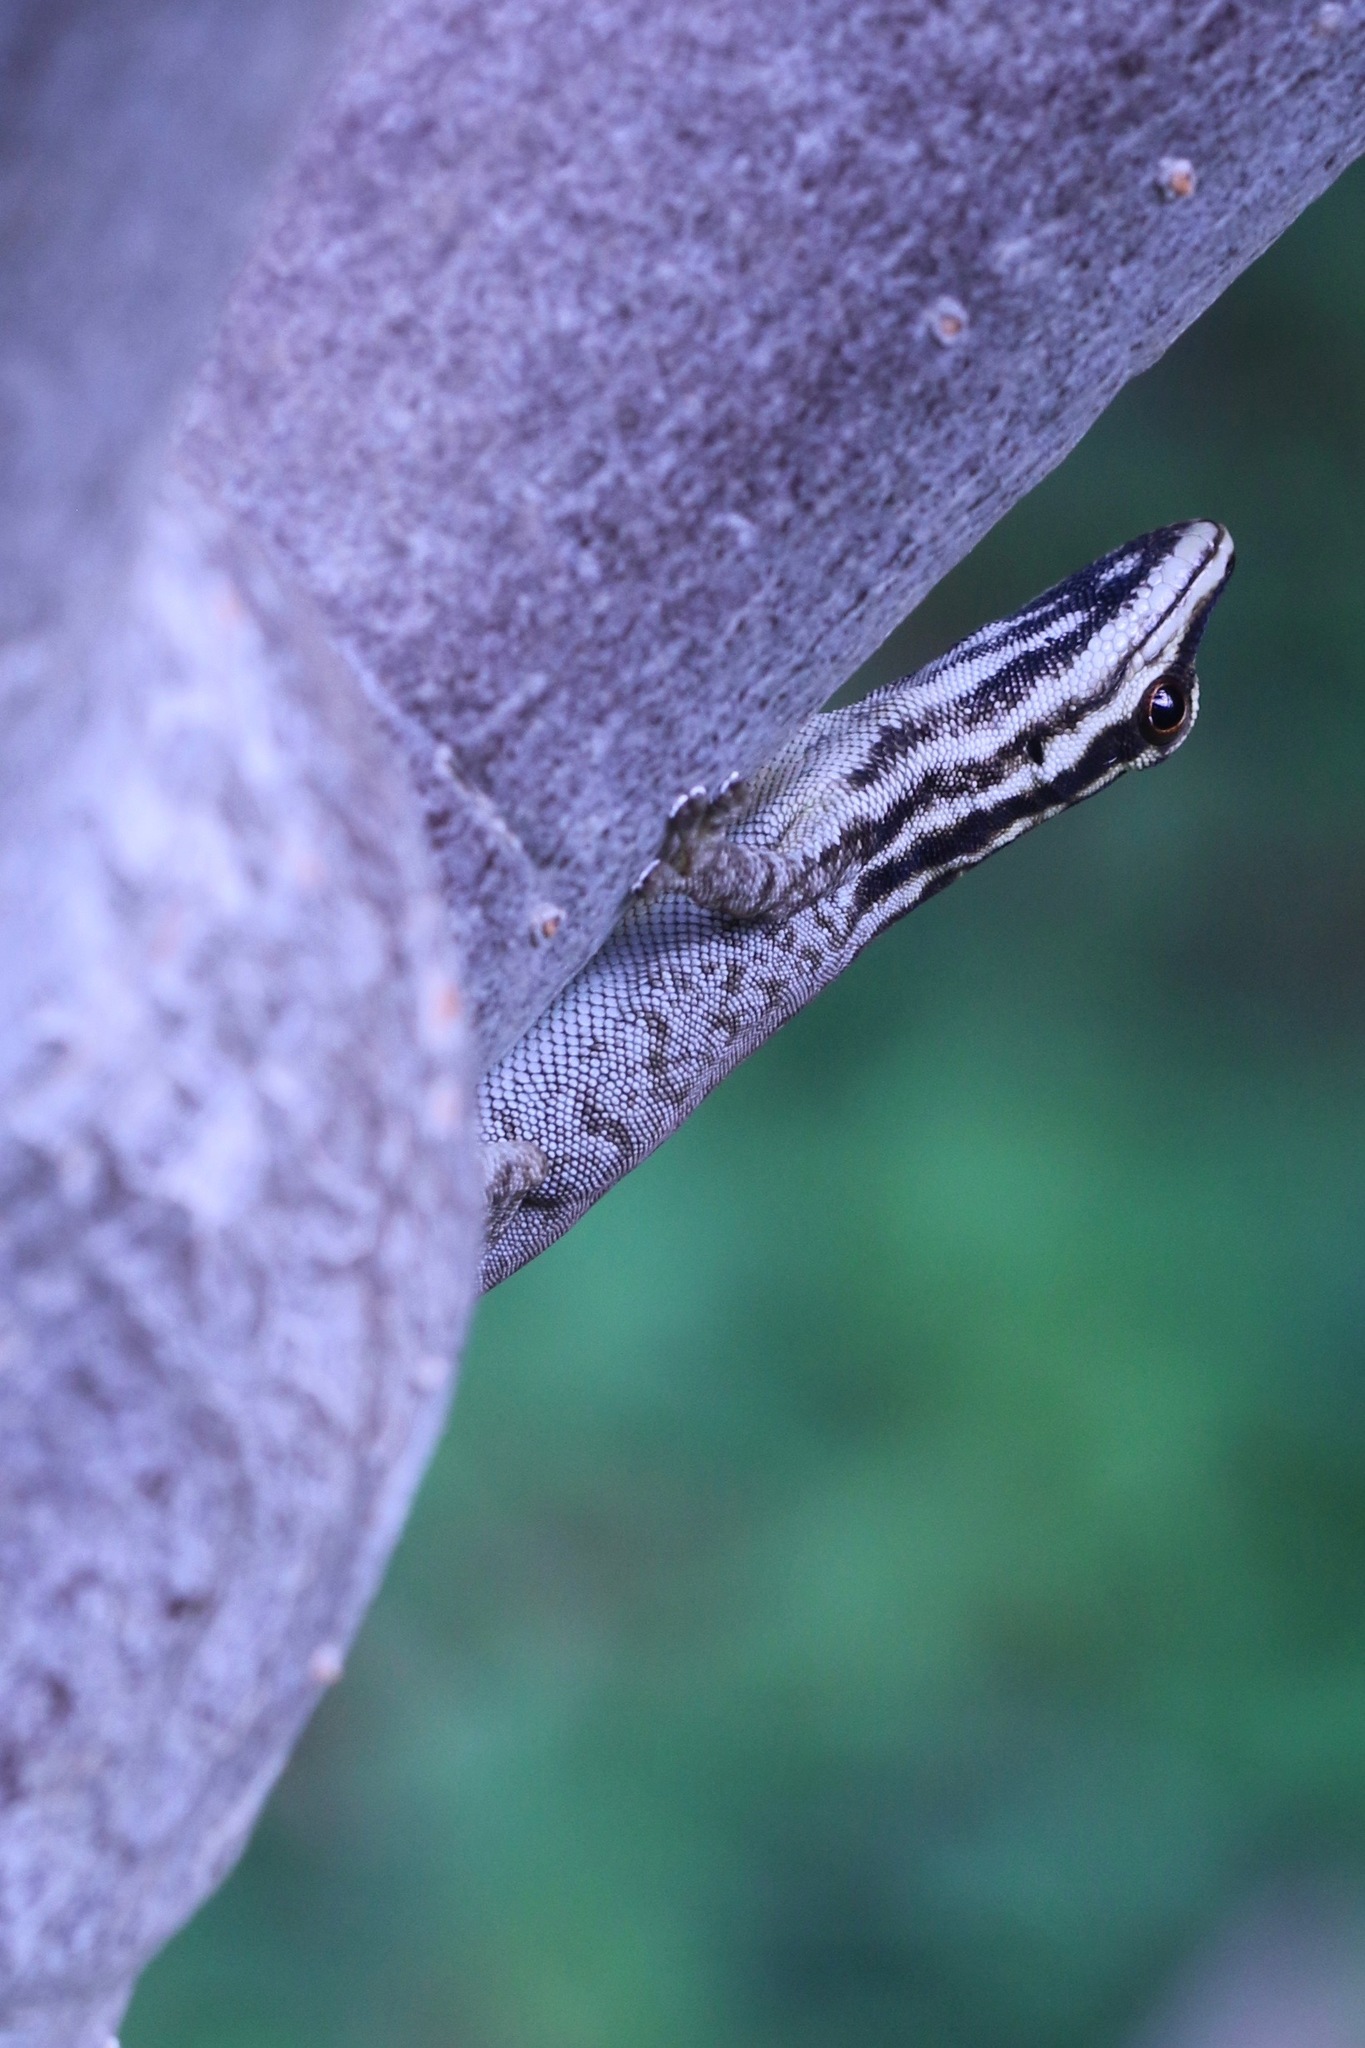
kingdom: Animalia
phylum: Chordata
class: Squamata
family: Gekkonidae
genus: Lygodactylus
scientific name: Lygodactylus wojnowskii
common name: Mt. kenya dwarf gecko
